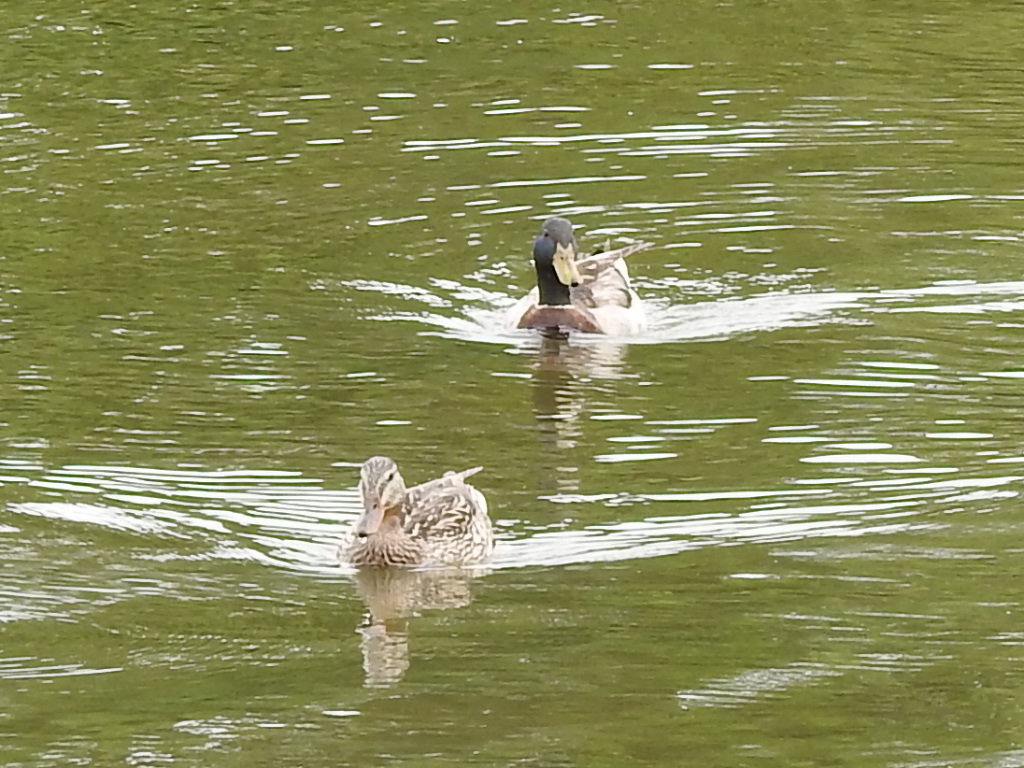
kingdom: Animalia
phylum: Chordata
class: Aves
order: Anseriformes
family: Anatidae
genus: Anas
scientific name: Anas platyrhynchos
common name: Mallard
